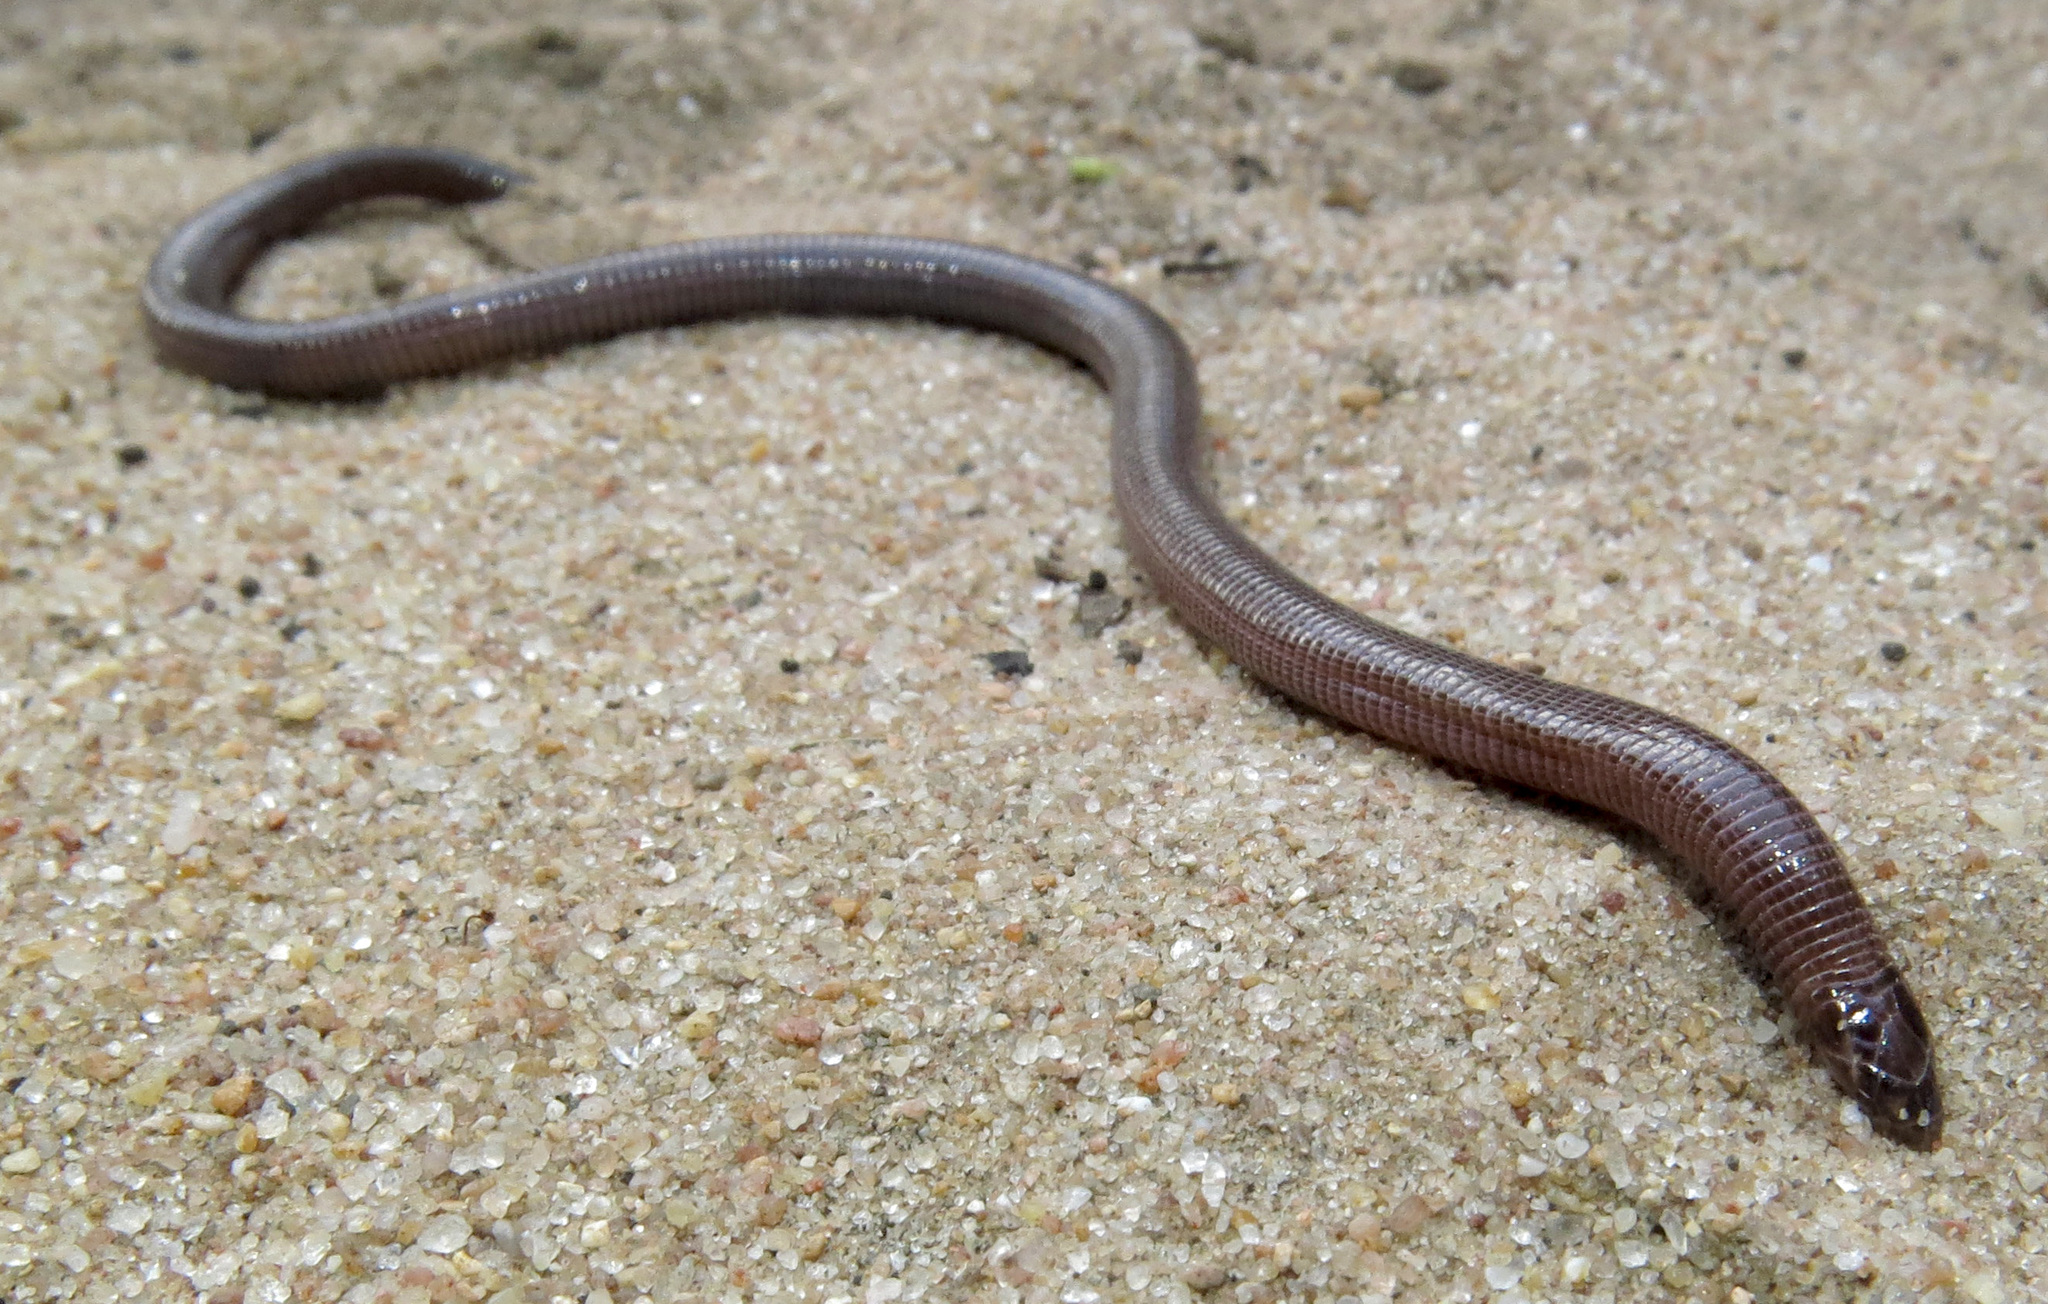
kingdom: Animalia
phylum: Chordata
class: Squamata
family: Amphisbaenidae
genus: Zygaspis
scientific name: Zygaspis arenicola
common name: Sand-dwelling dwarf worm lizard
